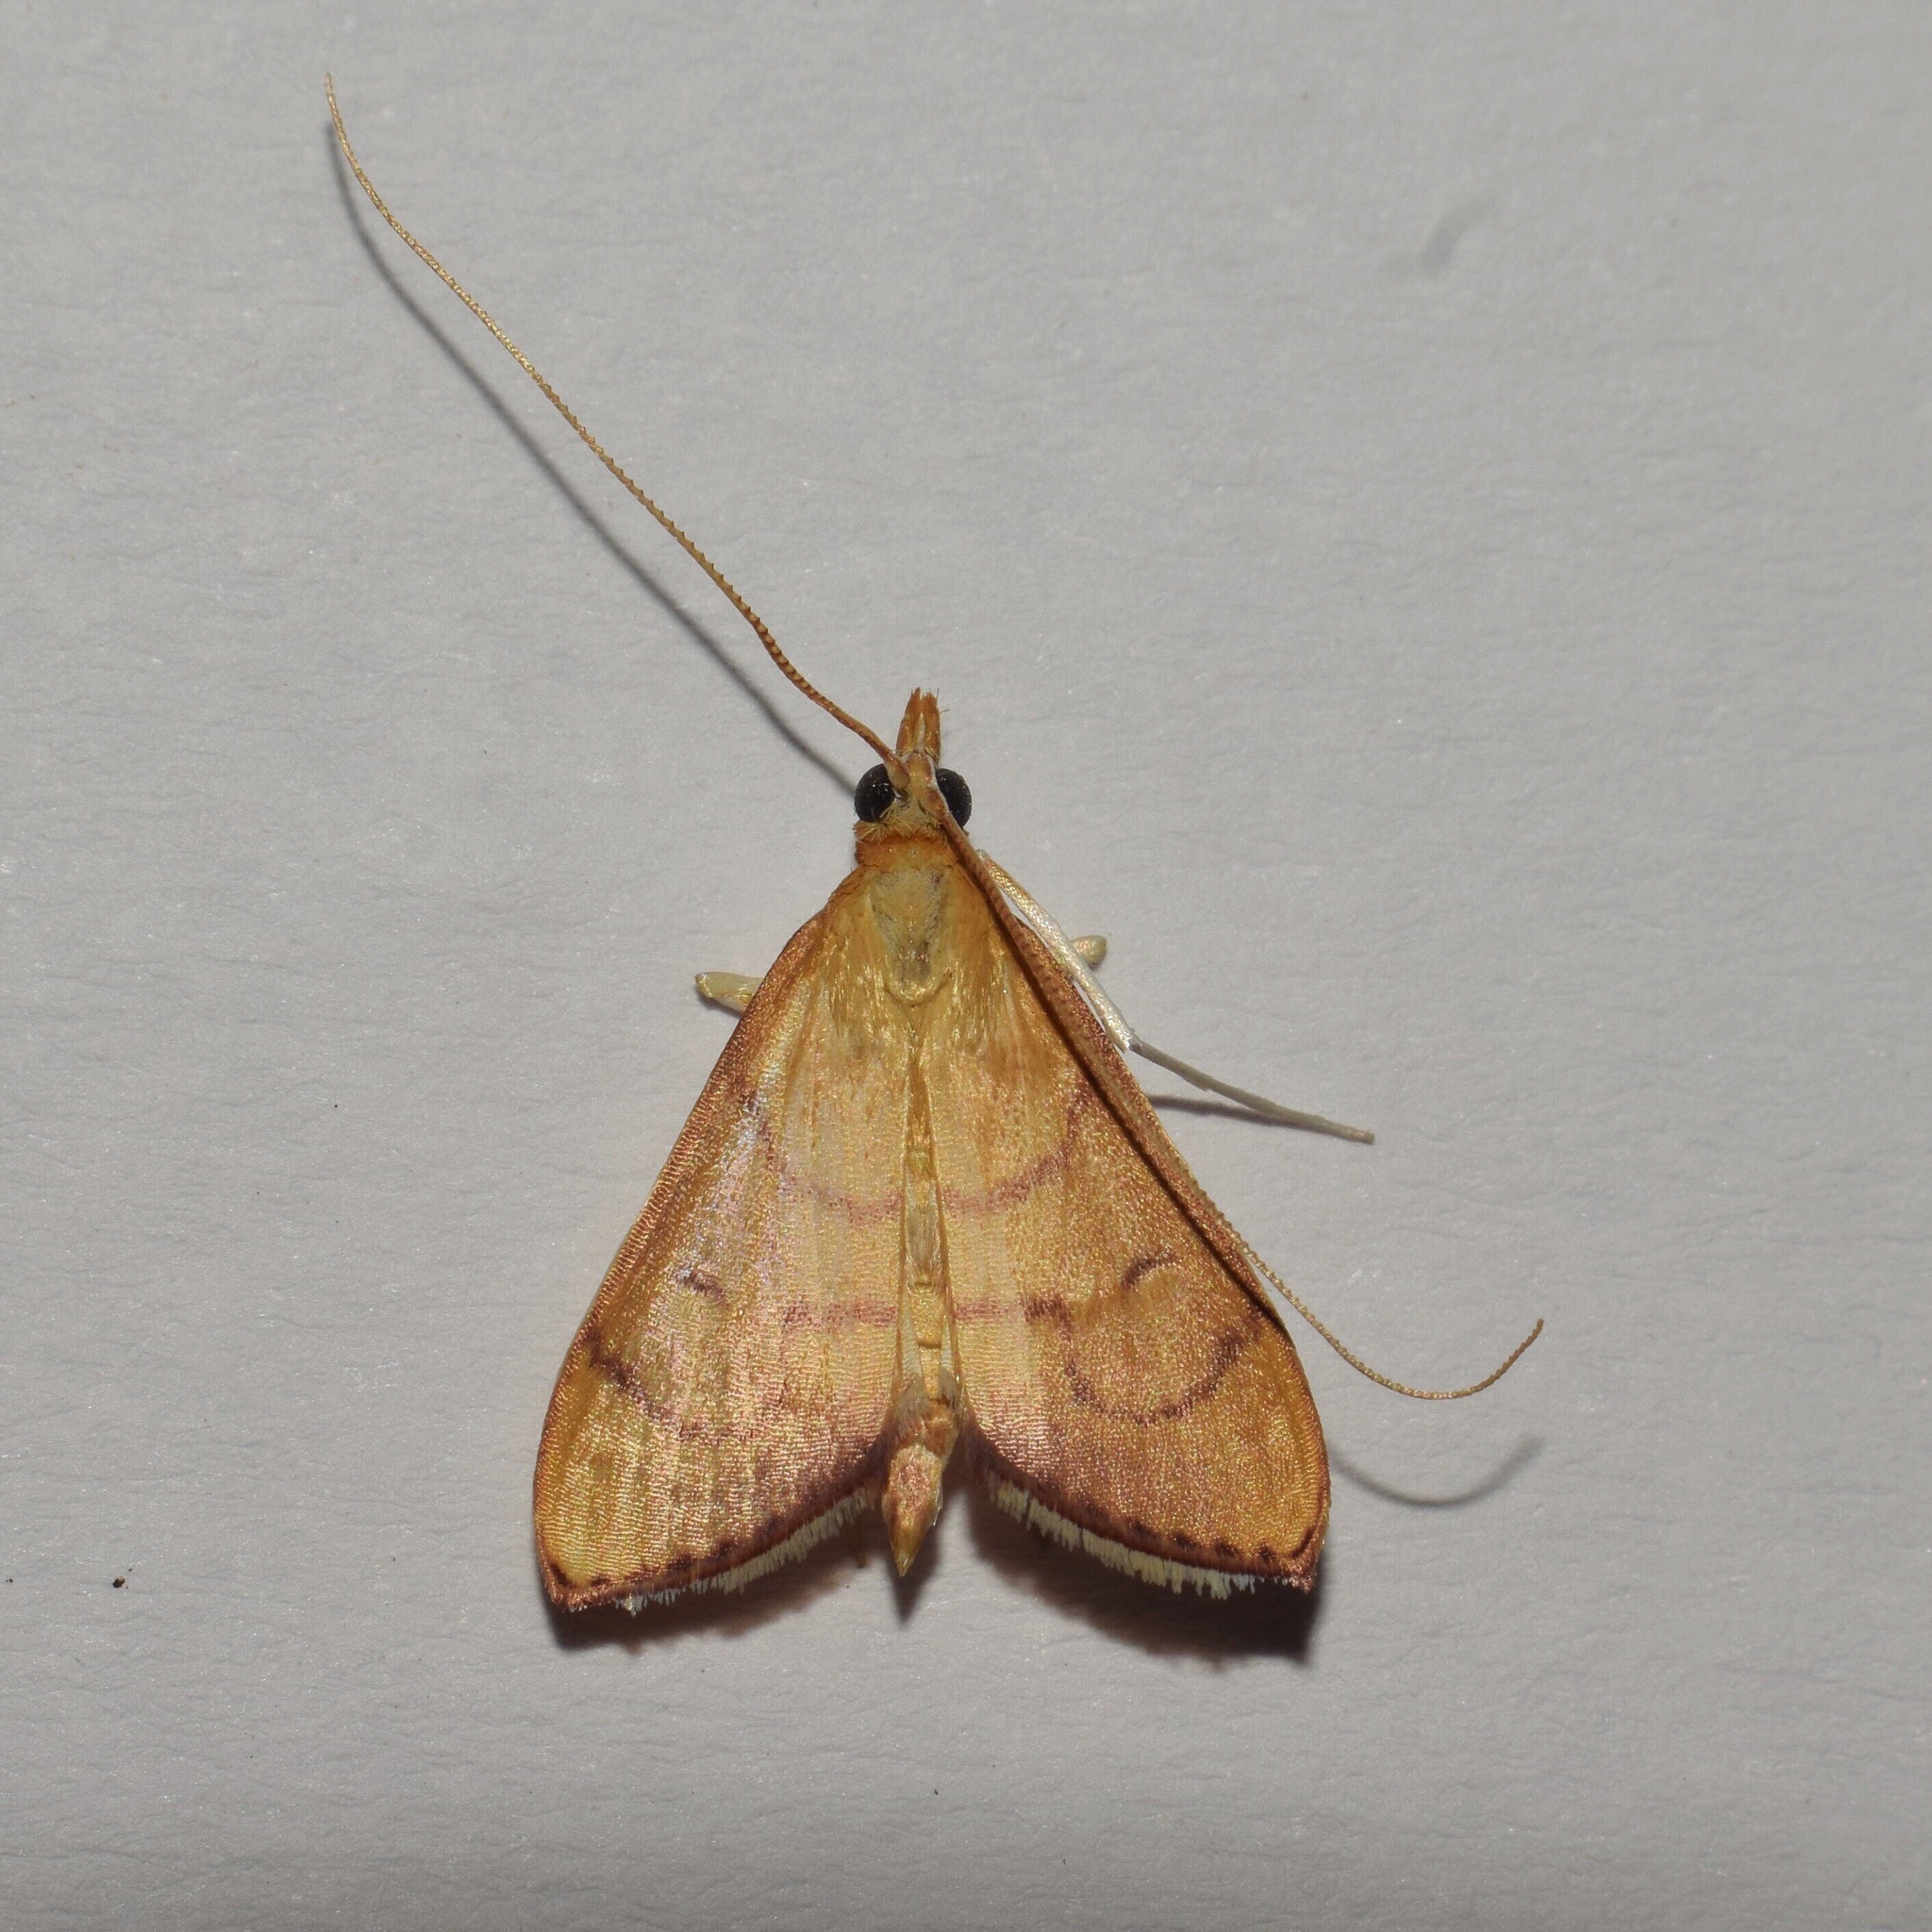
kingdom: Animalia
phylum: Arthropoda
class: Insecta
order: Lepidoptera
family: Crambidae
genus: Mimudea
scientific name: Mimudea prolausalis
